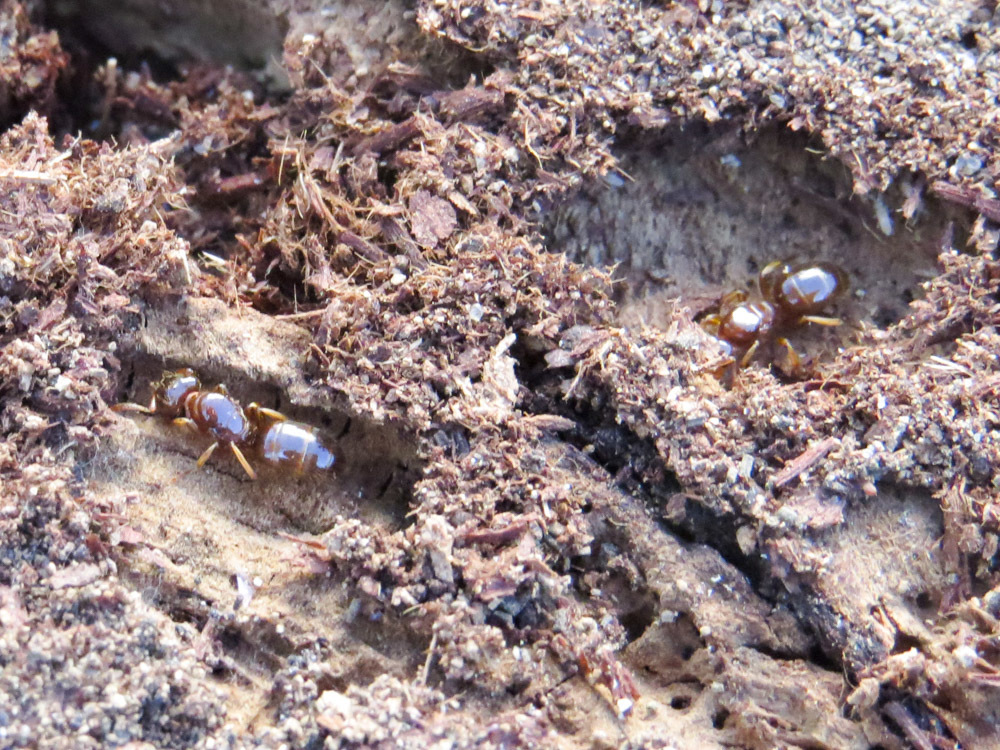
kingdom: Animalia
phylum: Arthropoda
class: Insecta
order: Hymenoptera
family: Formicidae
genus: Lasius
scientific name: Lasius claviger
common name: Common citronella ant
